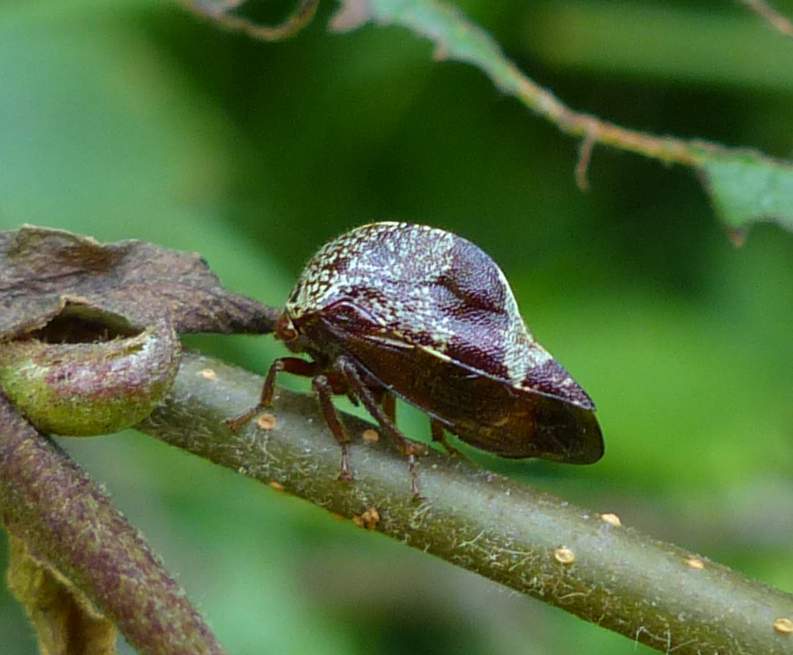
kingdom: Animalia
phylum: Arthropoda
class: Insecta
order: Hemiptera
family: Membracidae
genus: Carynota
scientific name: Carynota marmorata
